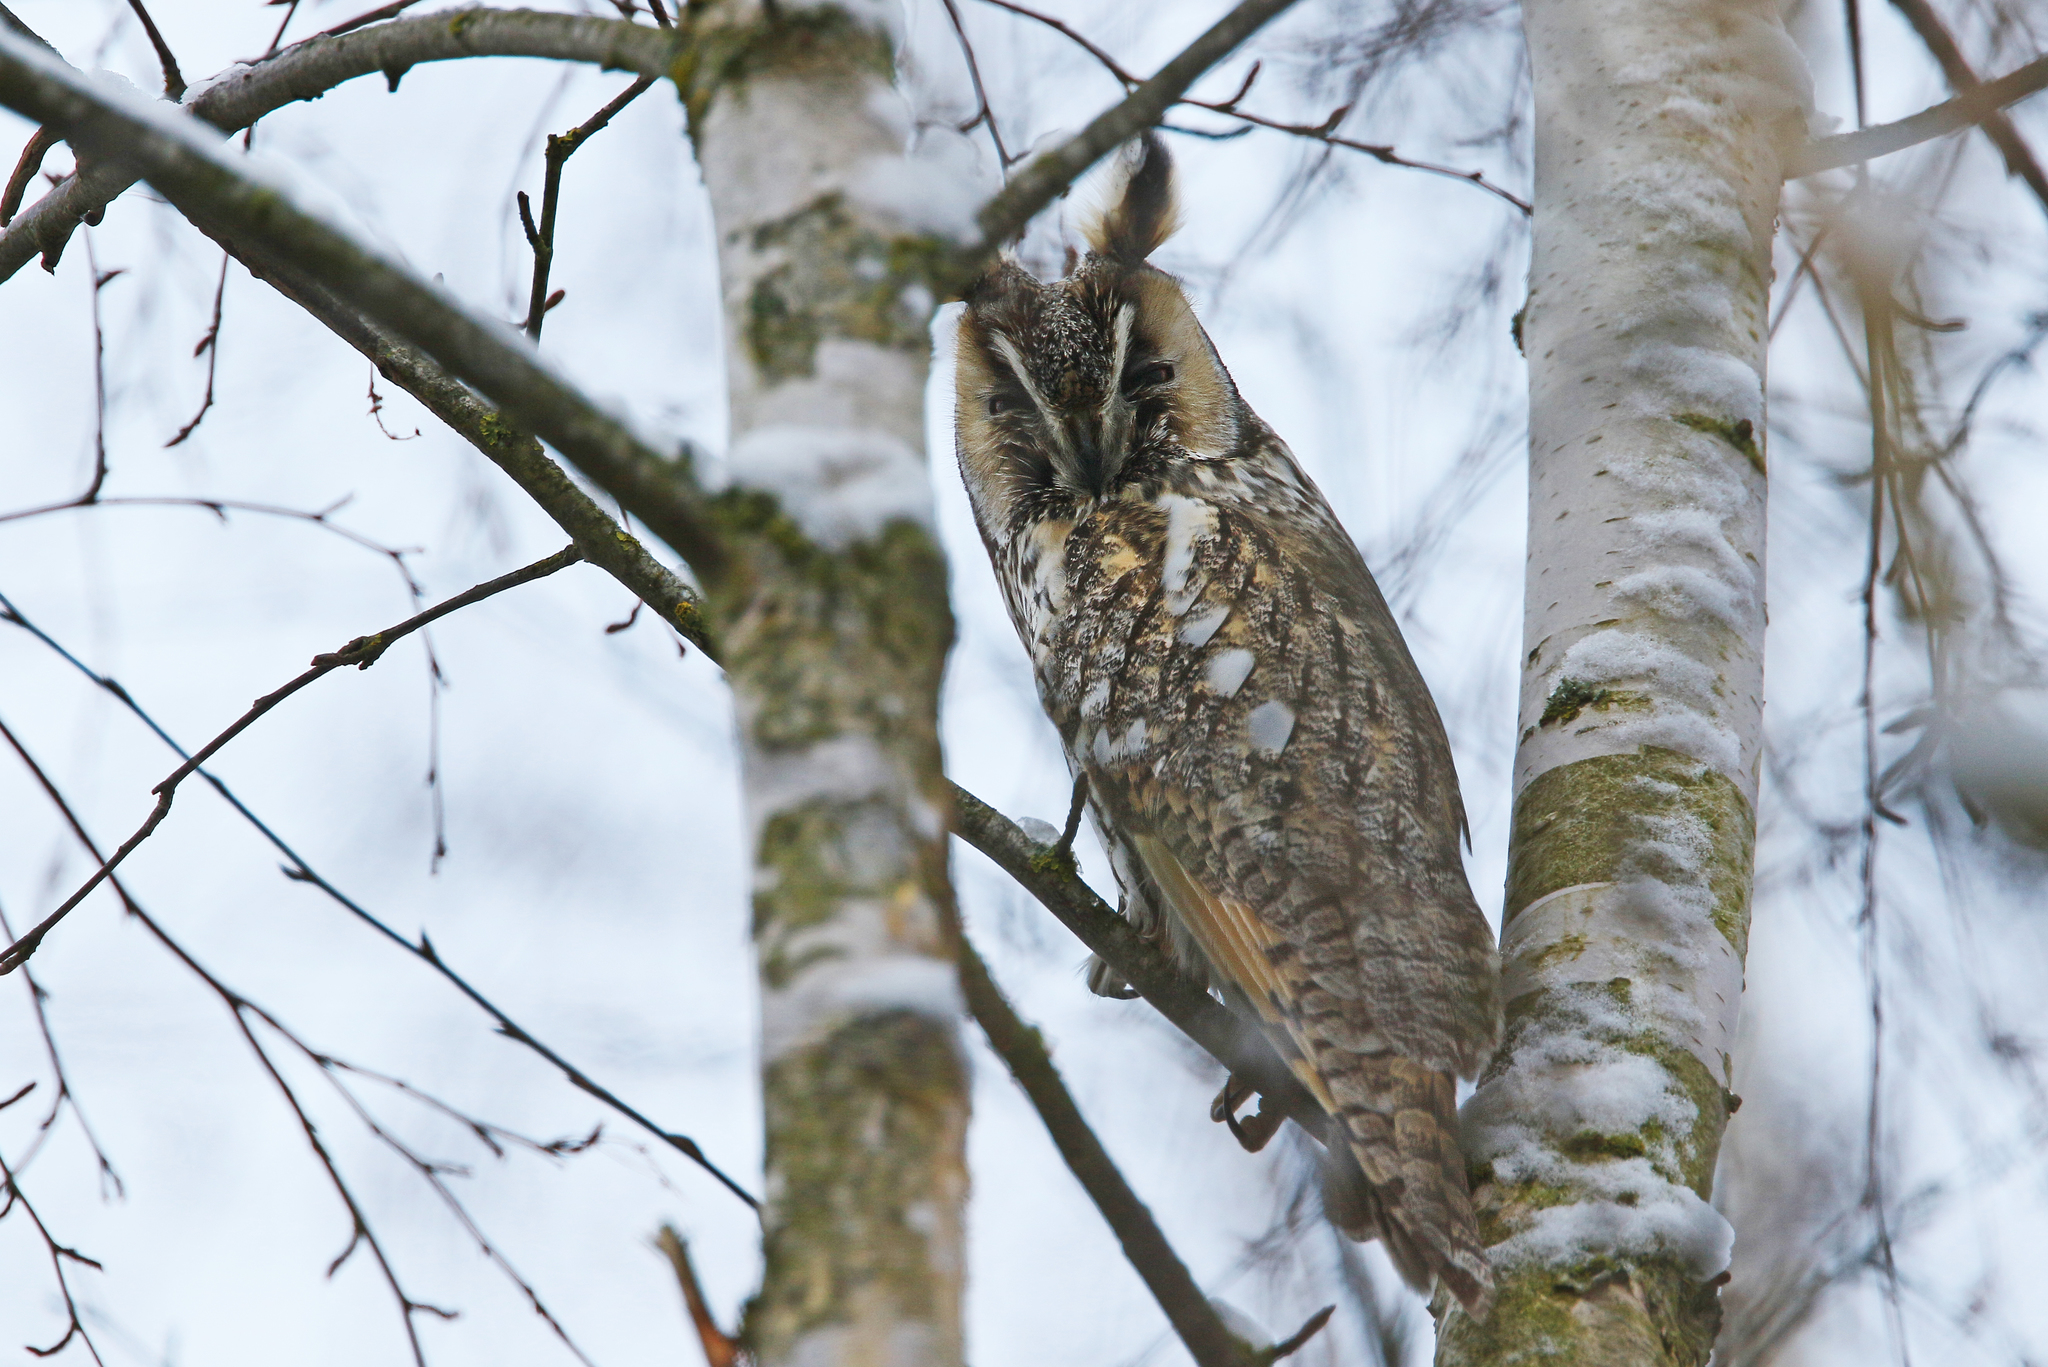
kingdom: Animalia
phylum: Chordata
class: Aves
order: Strigiformes
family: Strigidae
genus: Asio
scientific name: Asio otus
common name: Long-eared owl
